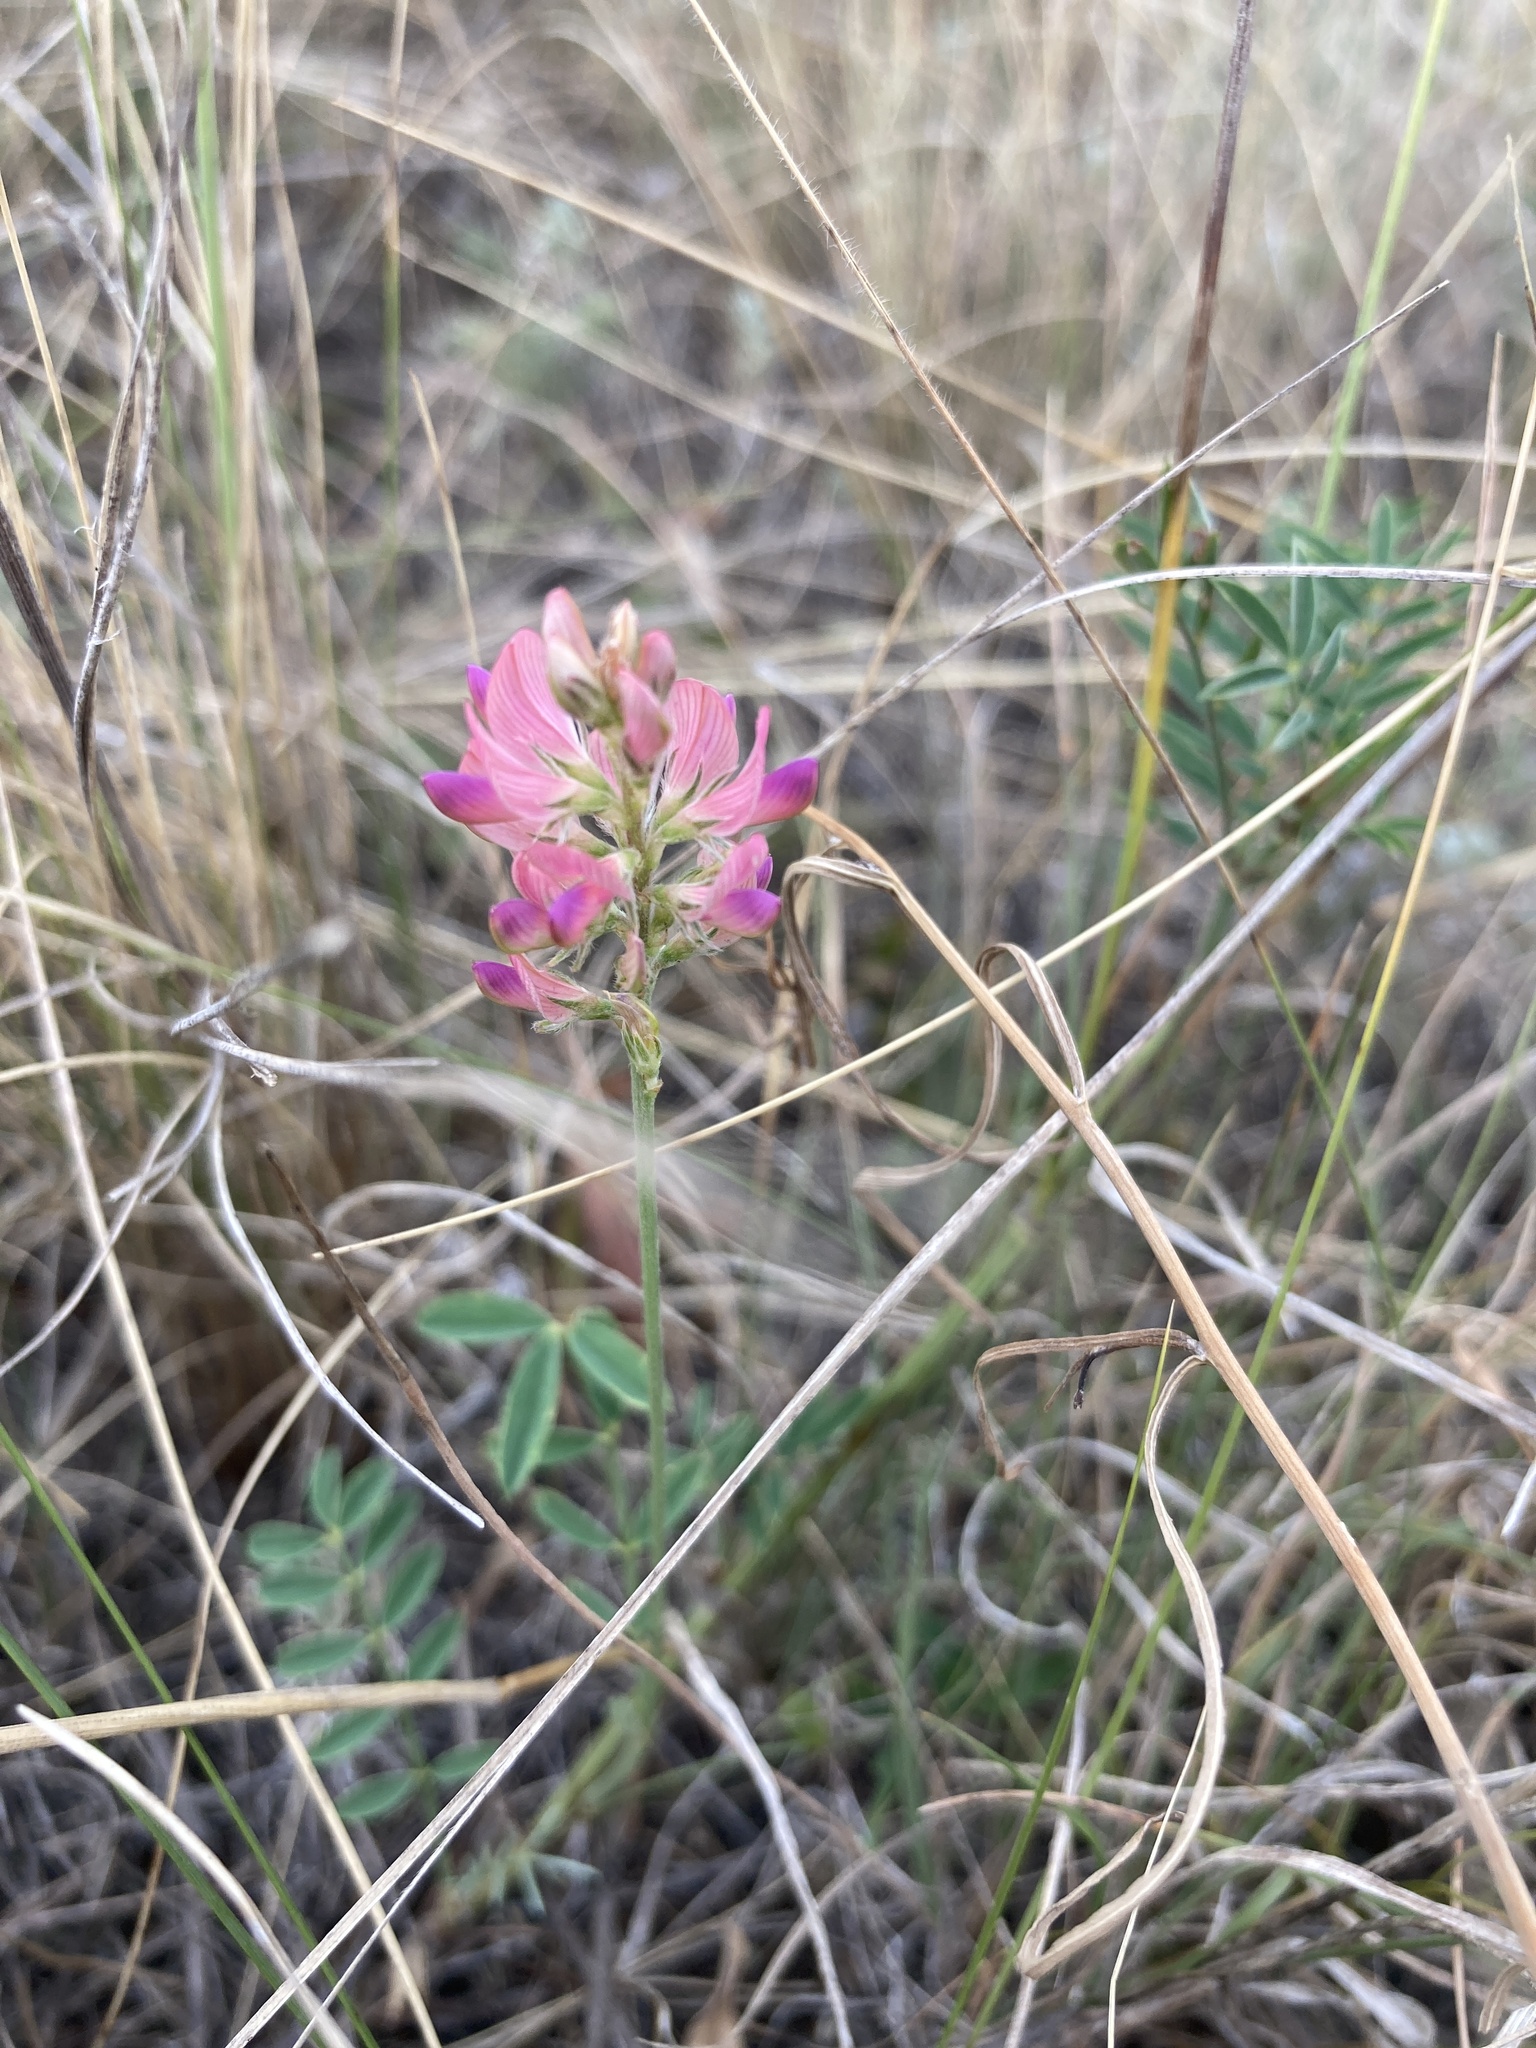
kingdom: Plantae
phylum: Tracheophyta
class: Magnoliopsida
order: Fabales
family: Fabaceae
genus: Onobrychis
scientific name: Onobrychis viciifolia
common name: Sainfoin
